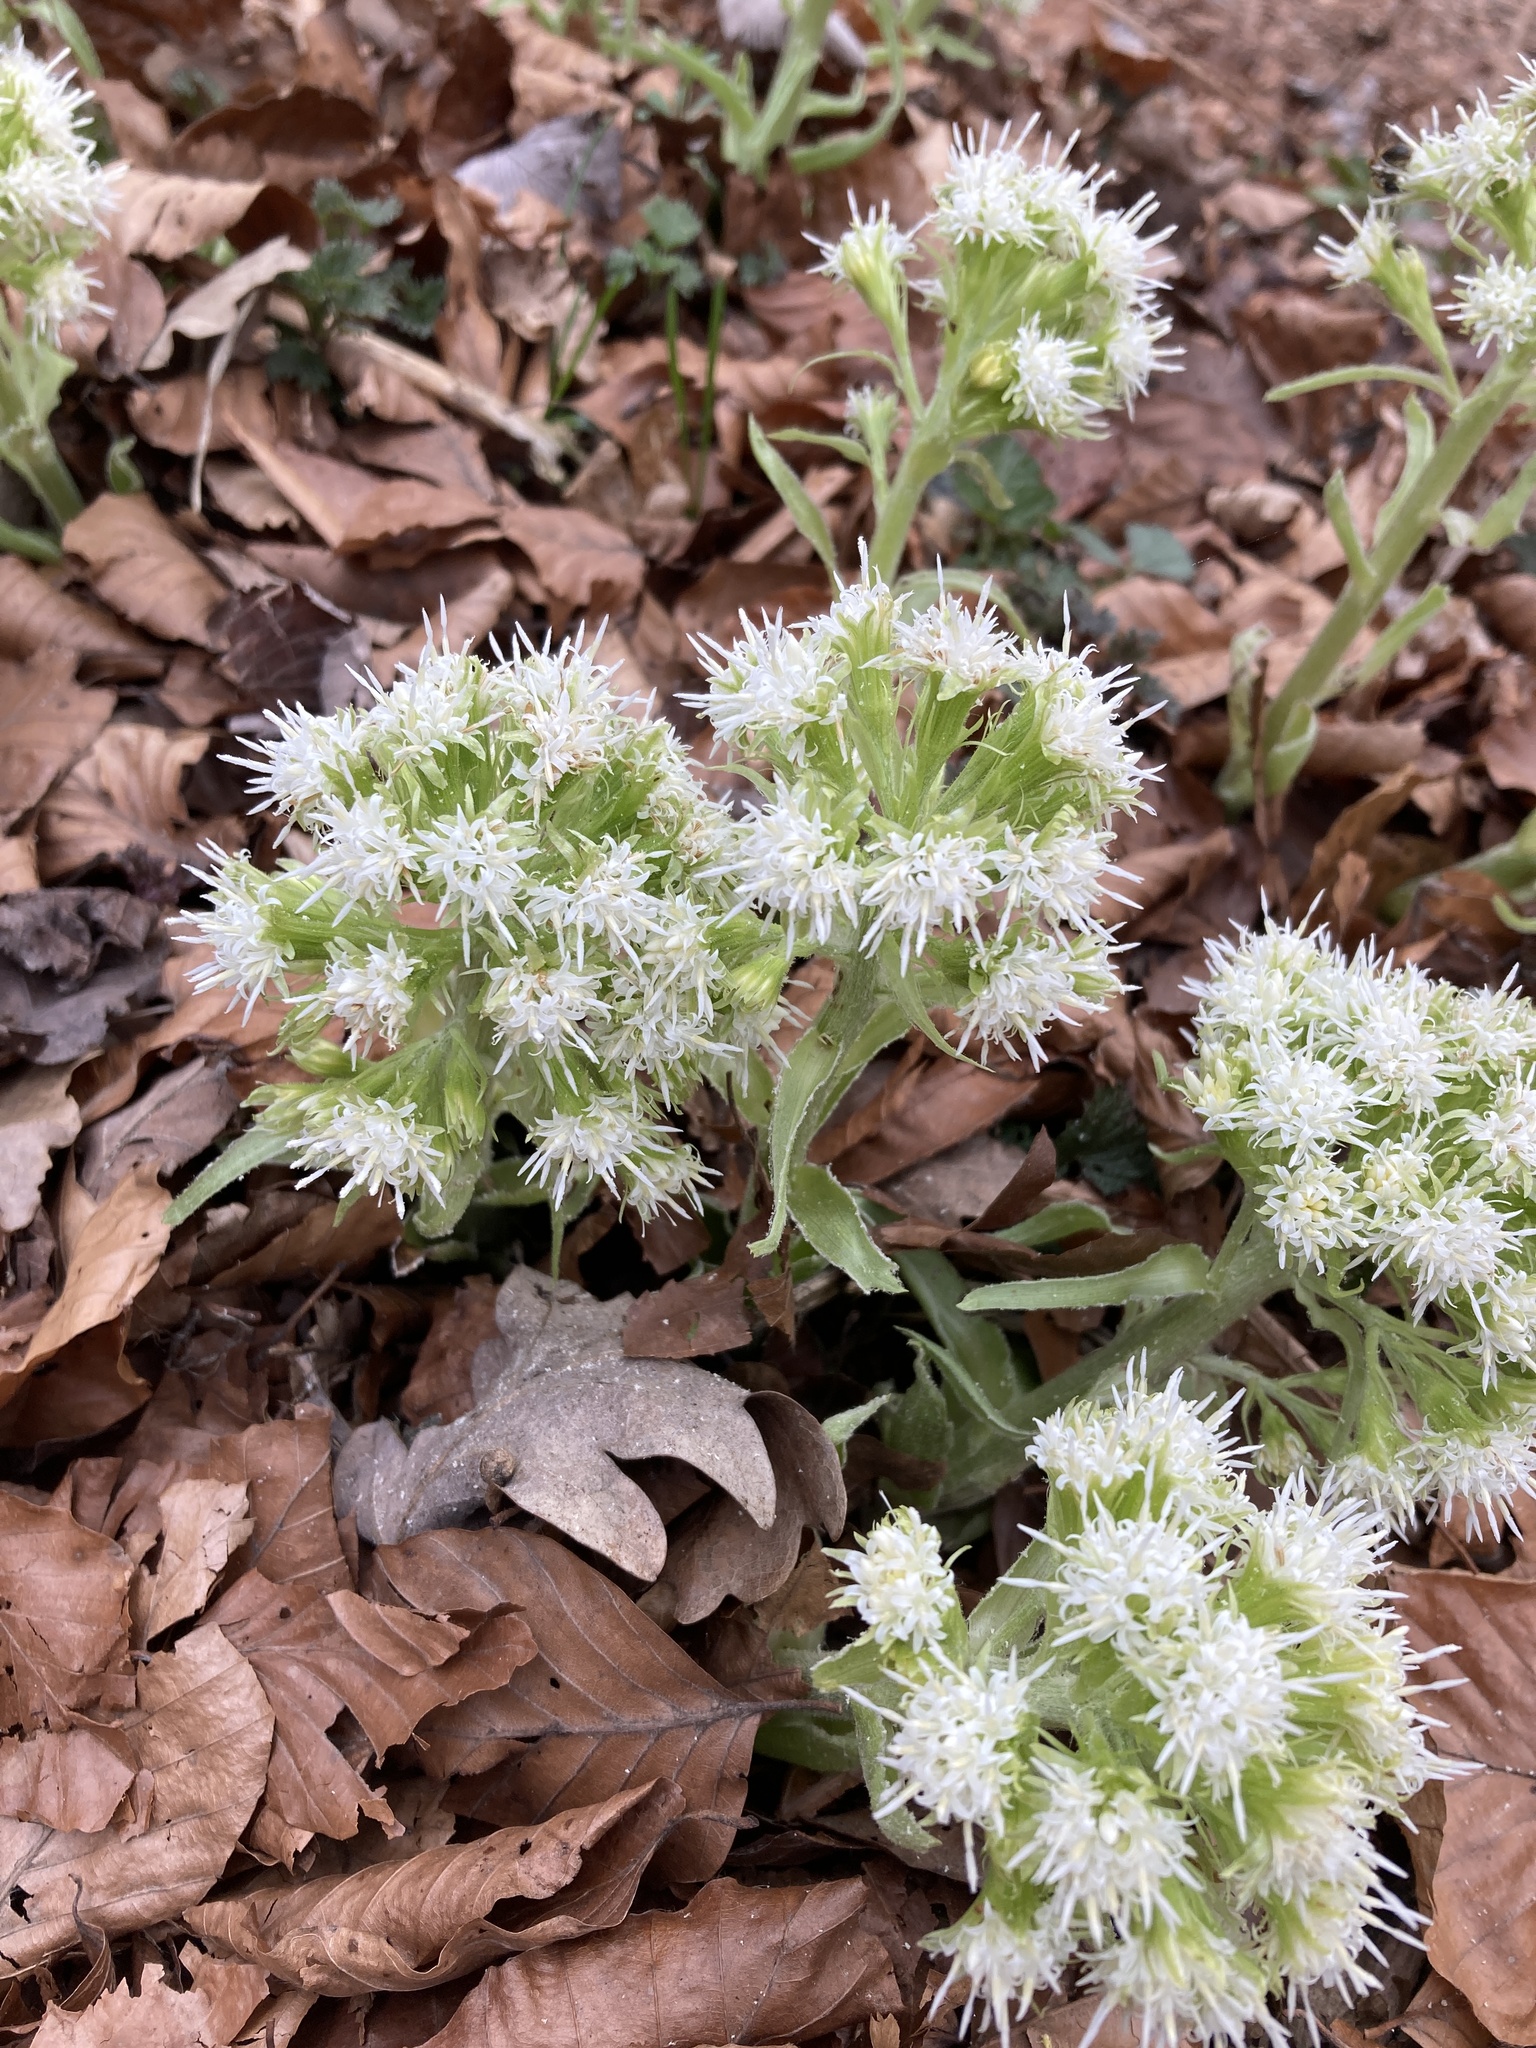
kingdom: Plantae
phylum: Tracheophyta
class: Magnoliopsida
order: Asterales
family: Asteraceae
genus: Petasites
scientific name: Petasites albus
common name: White butterbur
